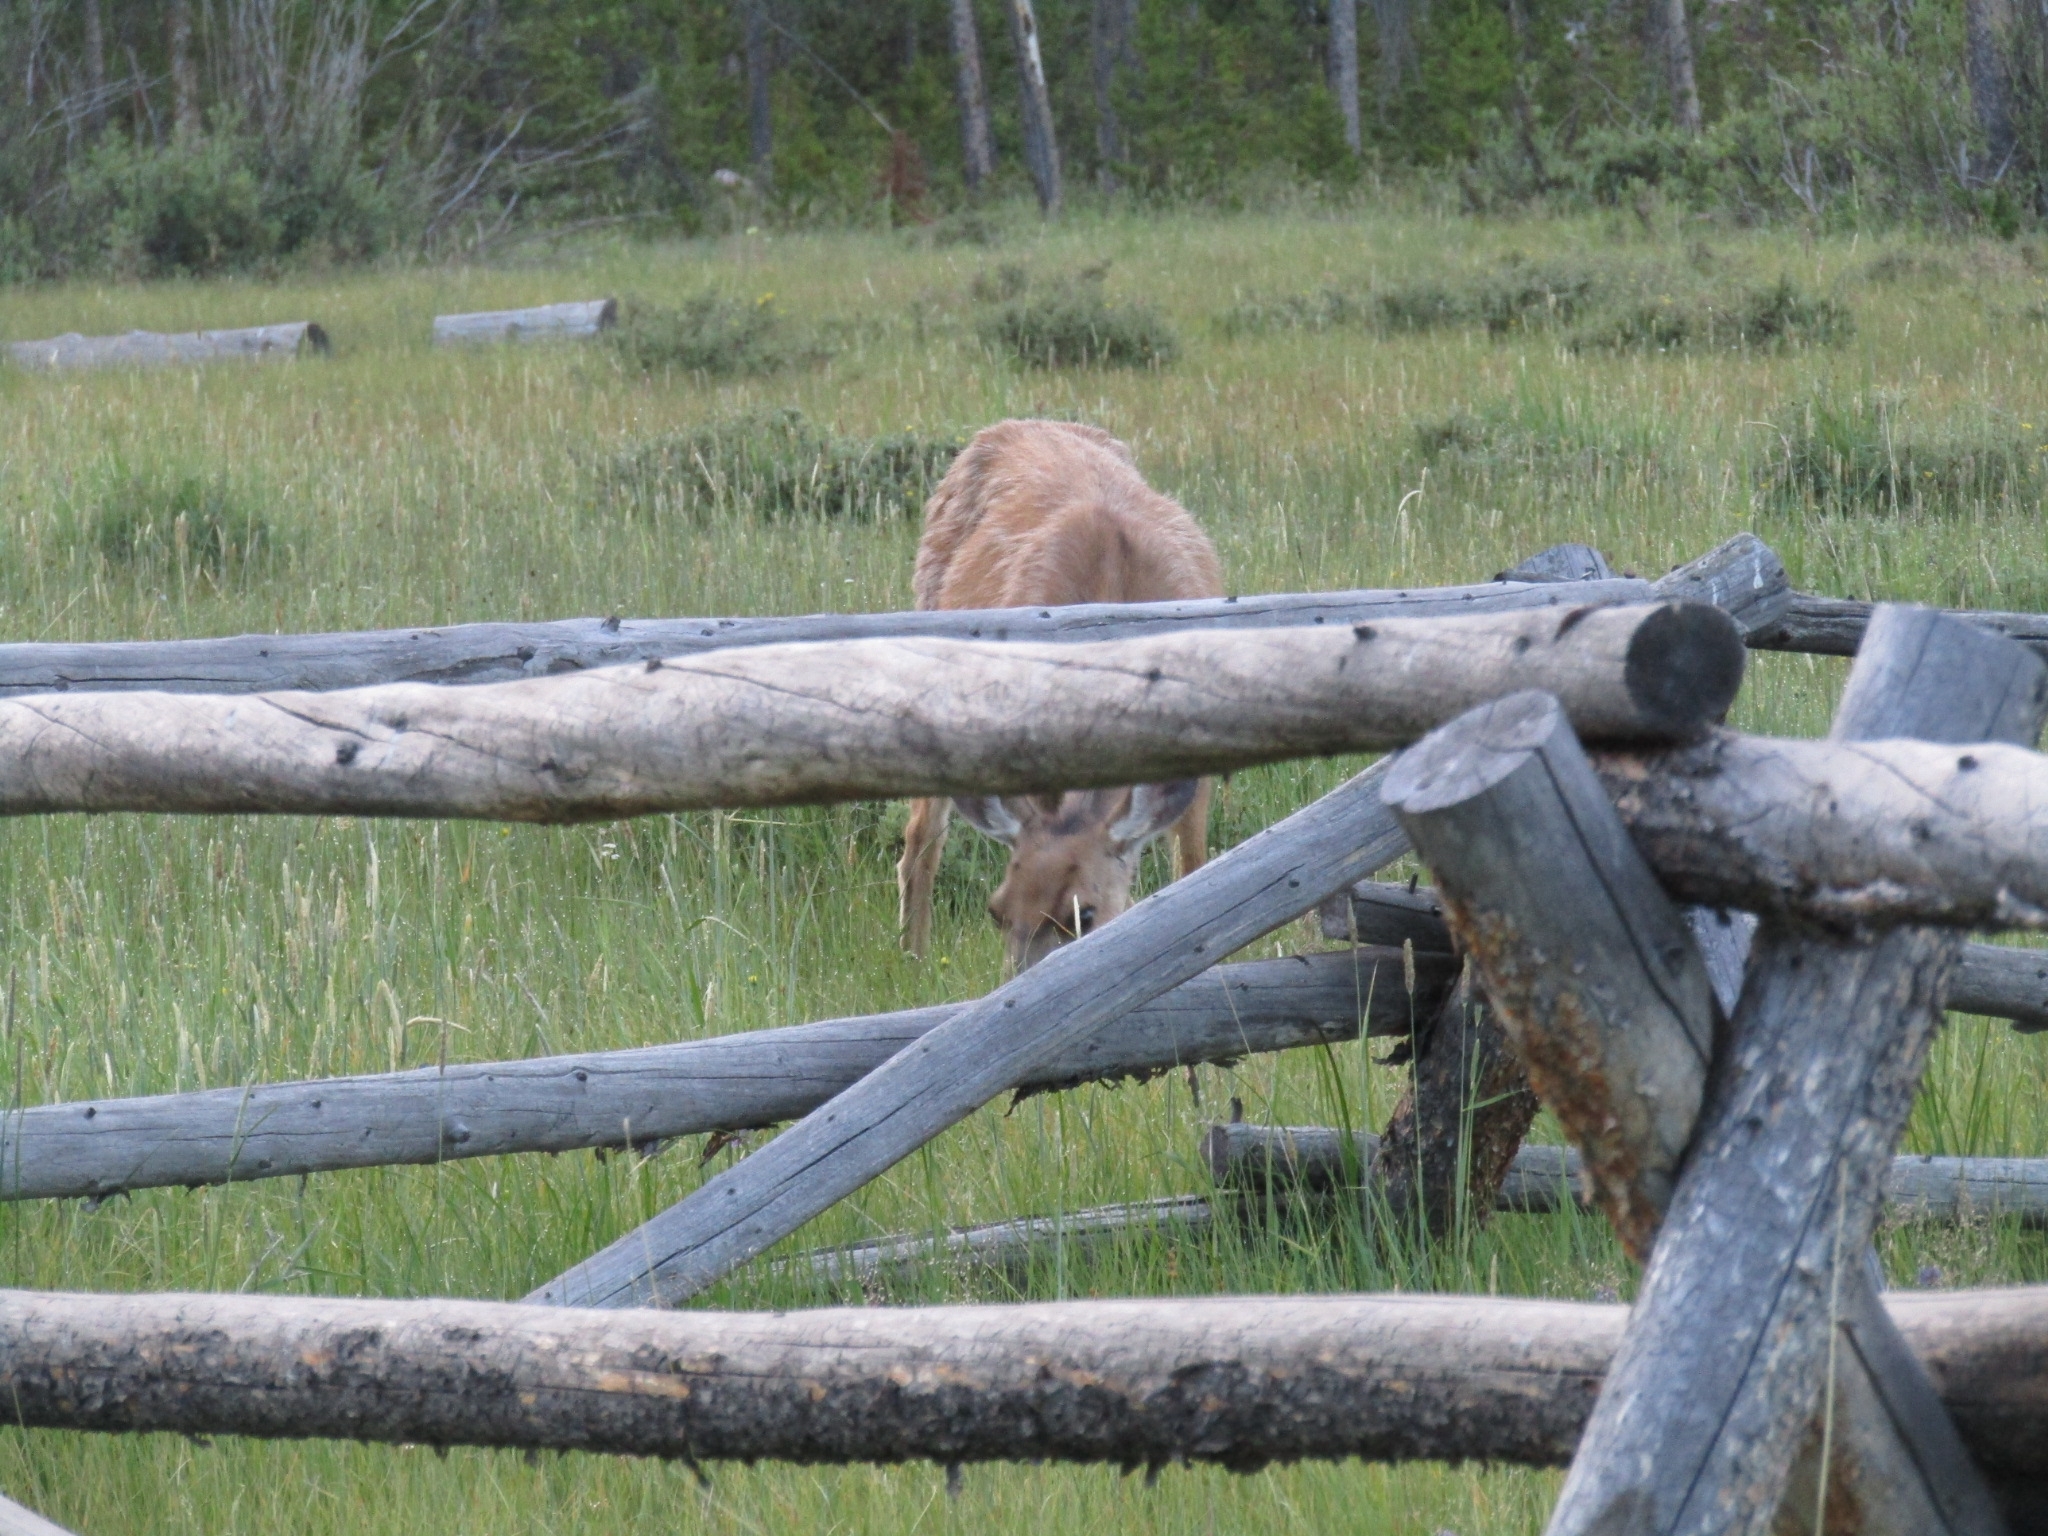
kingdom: Animalia
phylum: Chordata
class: Mammalia
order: Artiodactyla
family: Cervidae
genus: Odocoileus
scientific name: Odocoileus hemionus
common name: Mule deer
